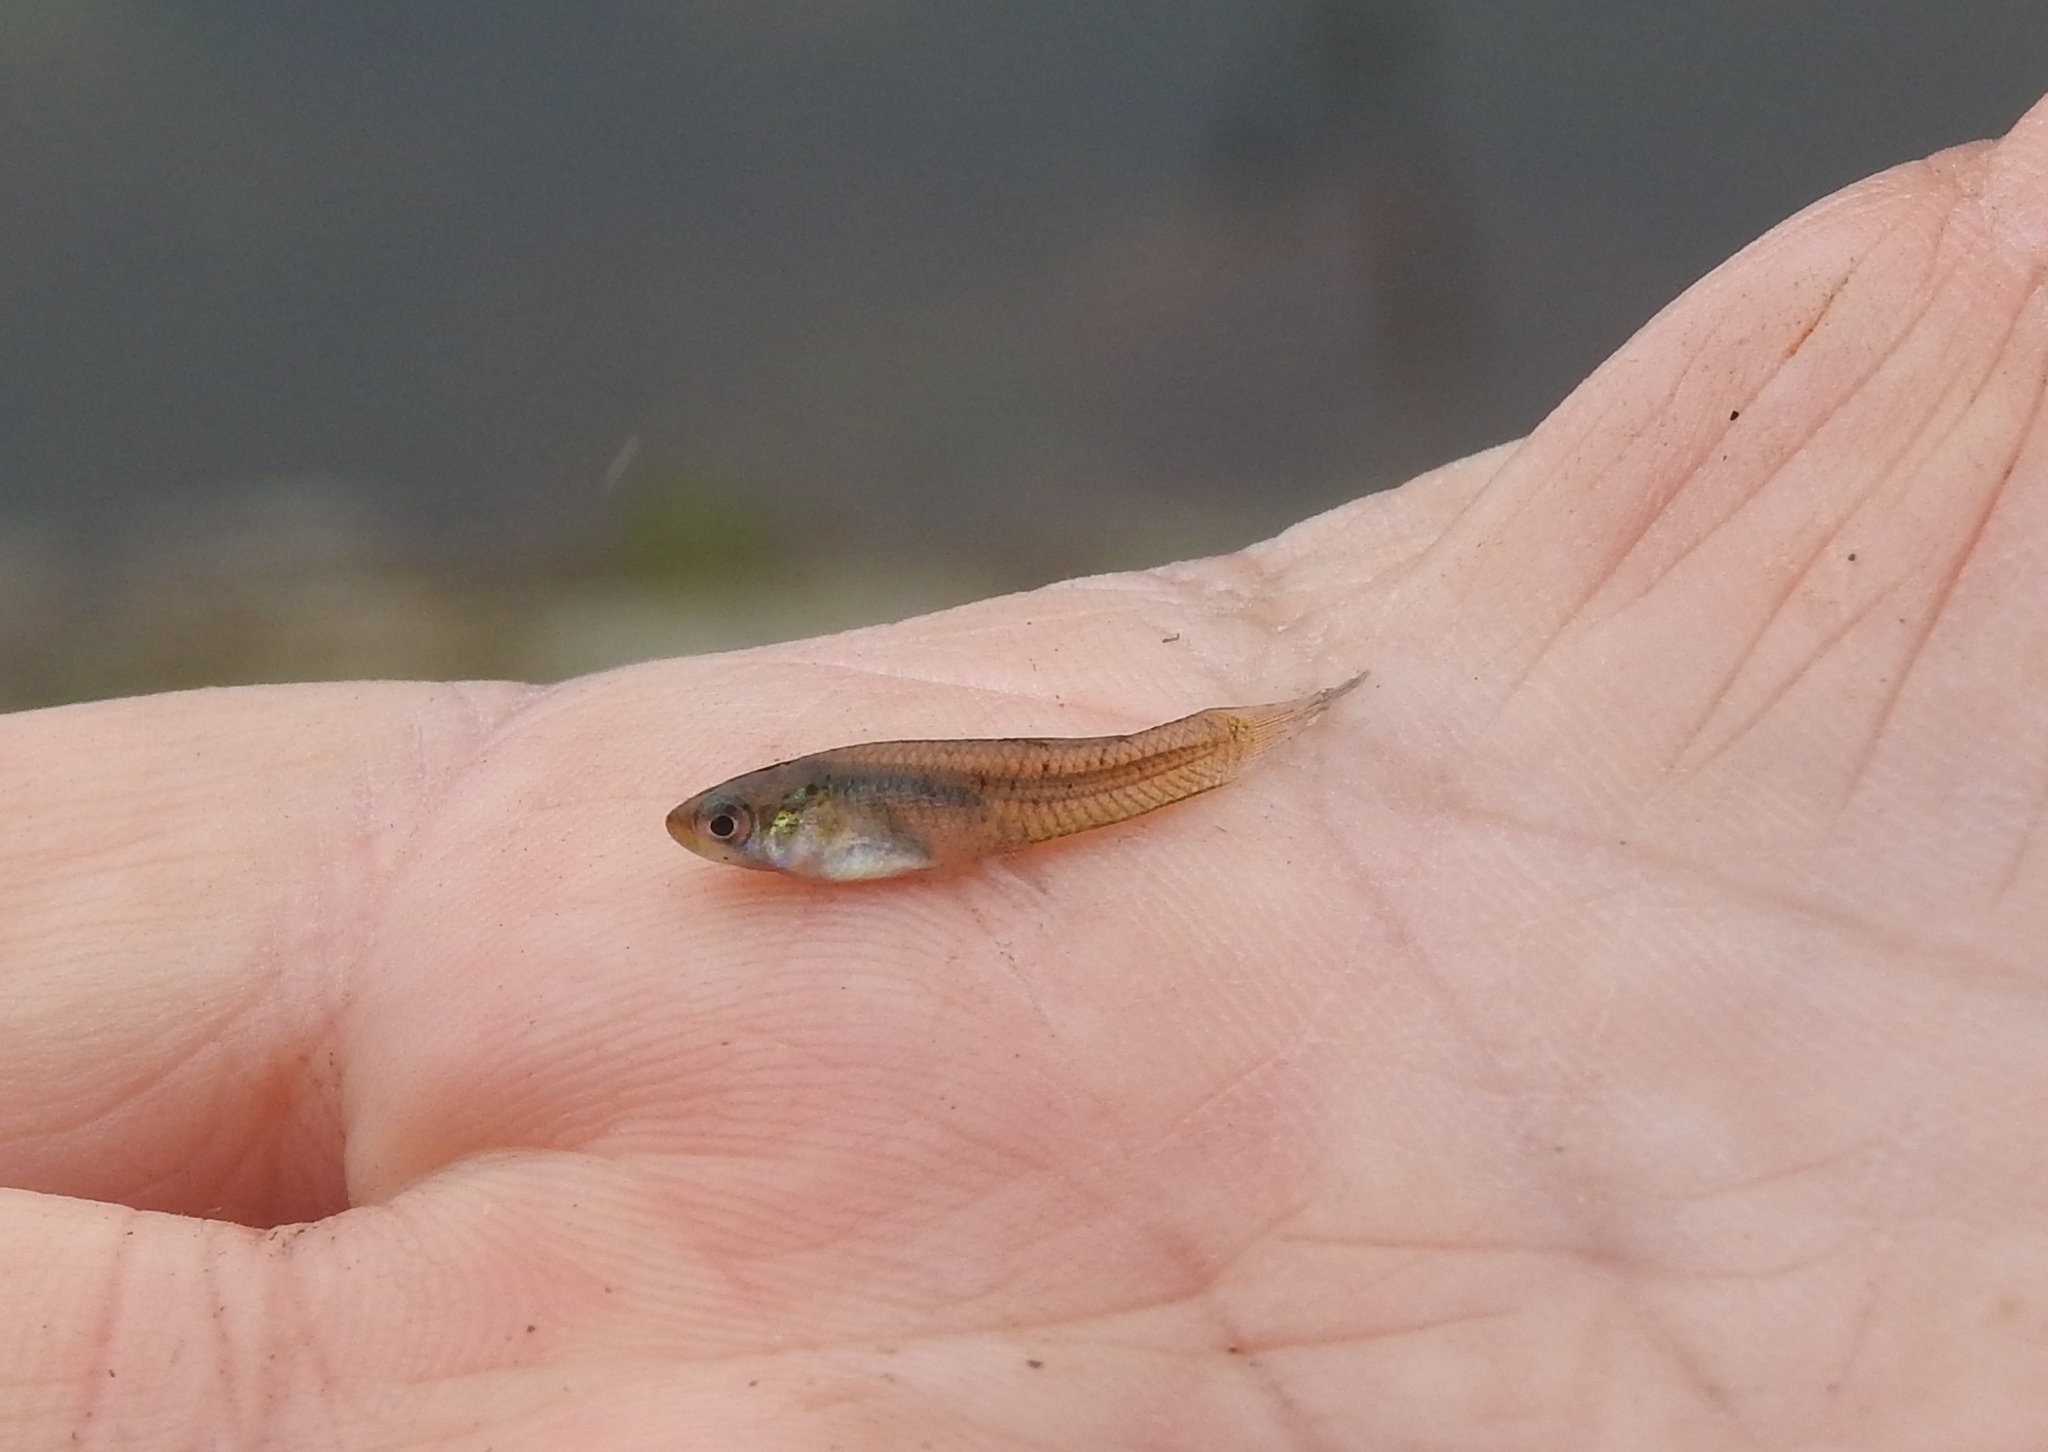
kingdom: Animalia
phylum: Chordata
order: Cyprinodontiformes
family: Poeciliidae
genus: Gambusia
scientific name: Gambusia holbrooki
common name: Eastern mosquitofish
